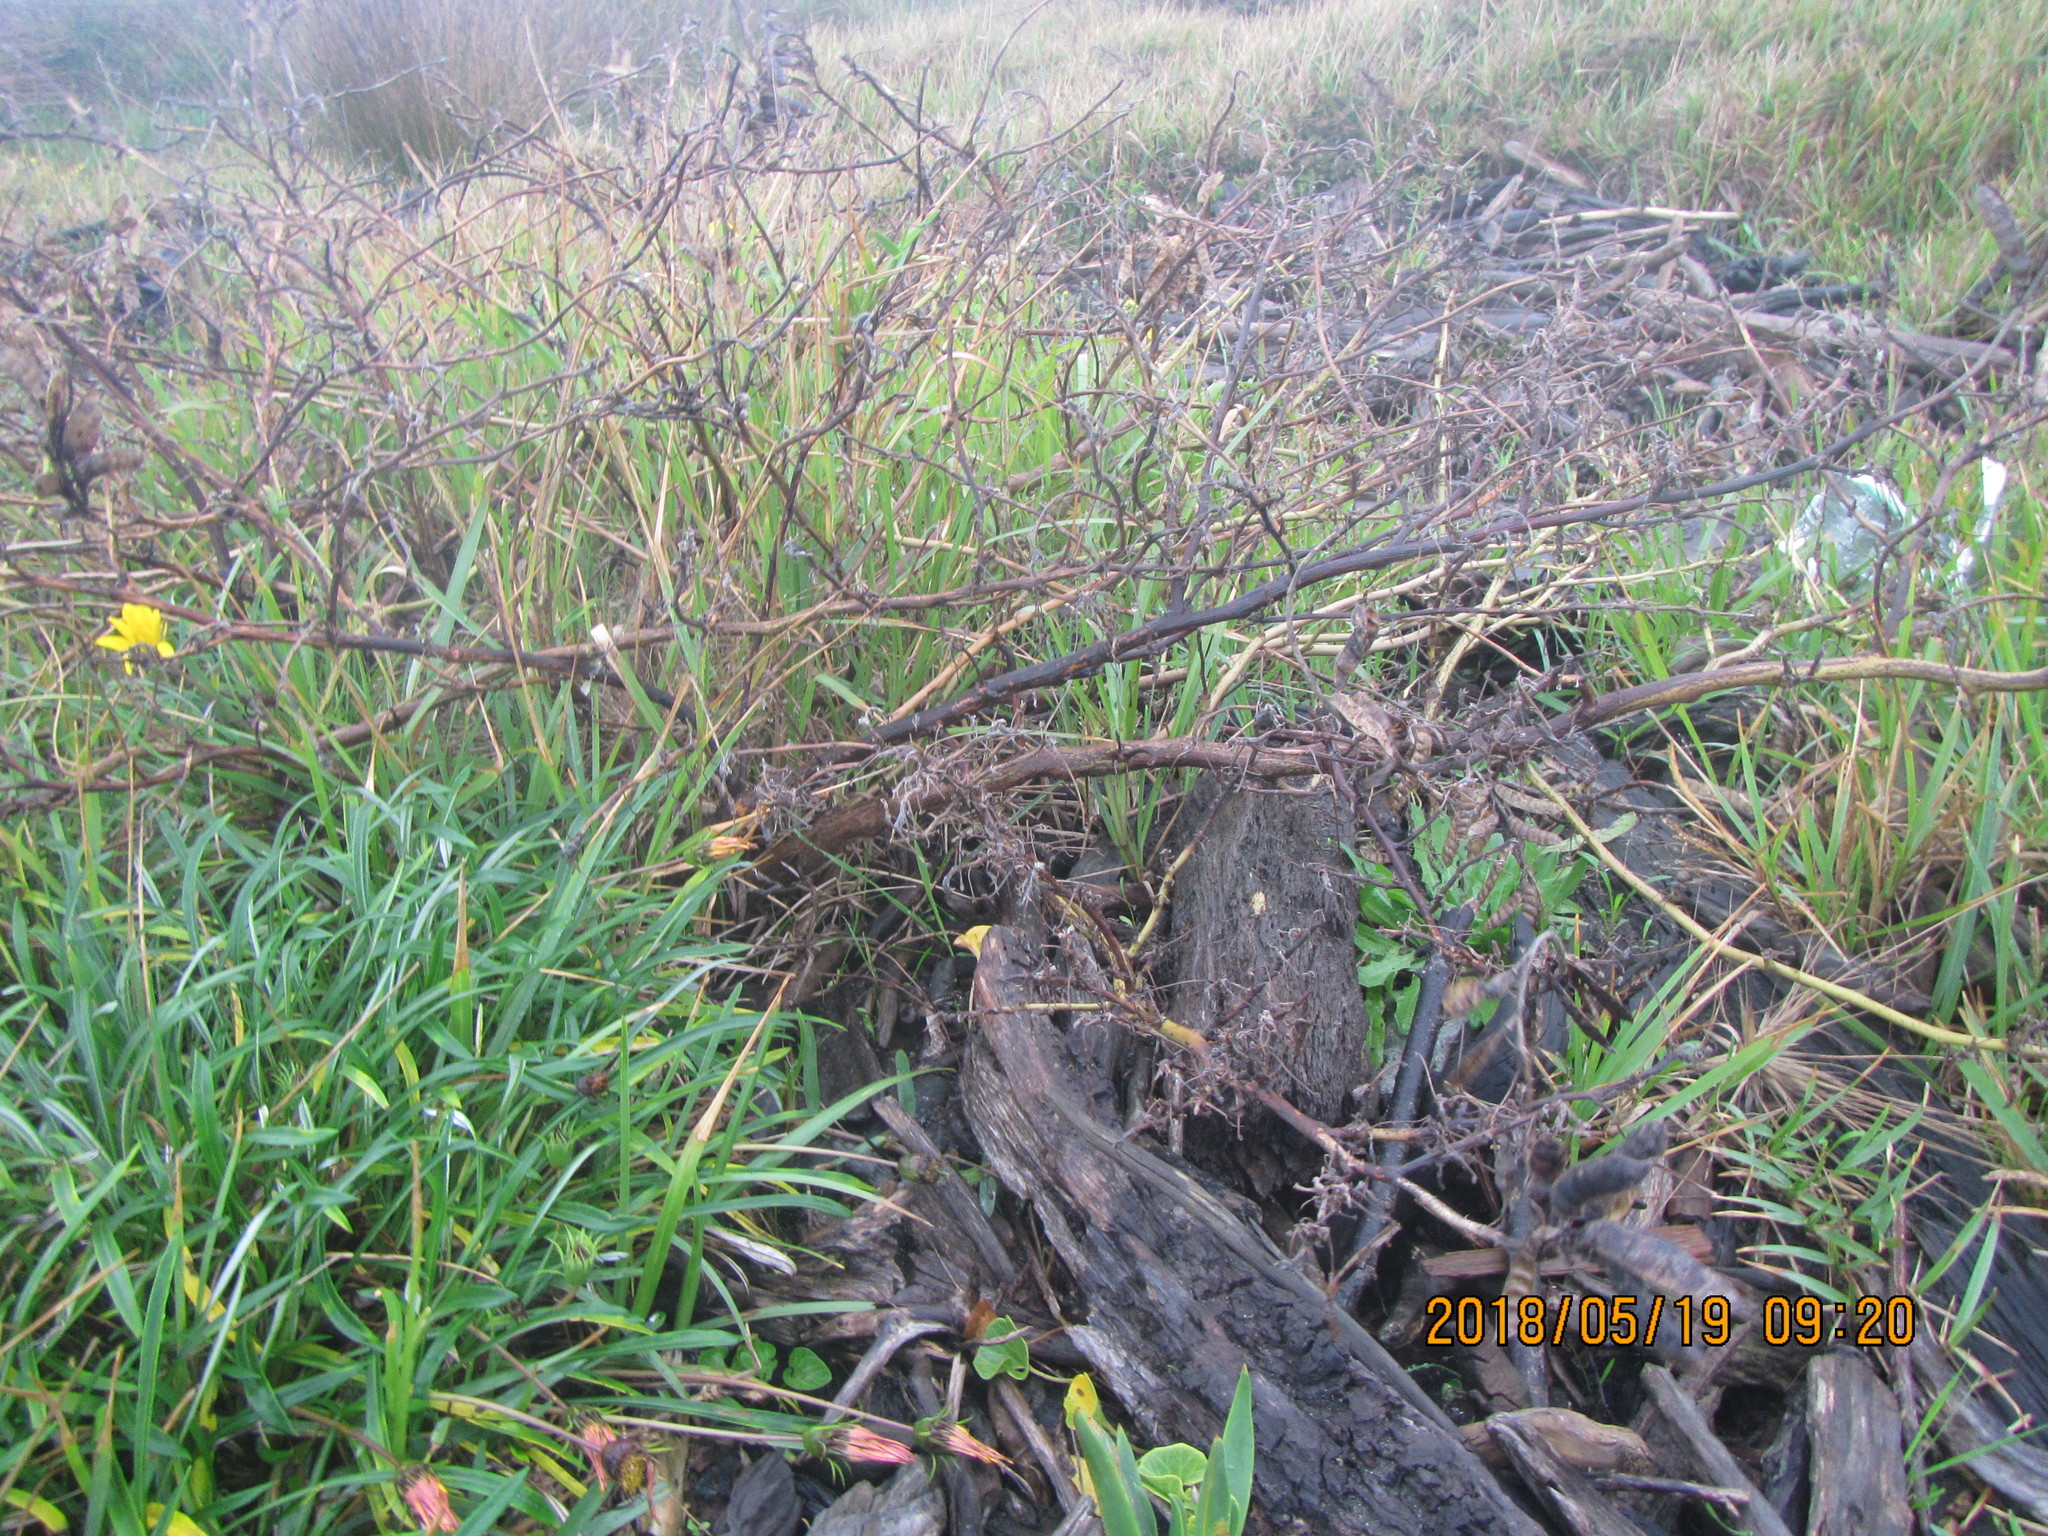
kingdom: Plantae
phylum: Tracheophyta
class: Magnoliopsida
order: Fabales
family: Fabaceae
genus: Lupinus
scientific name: Lupinus arboreus
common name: Yellow bush lupine
